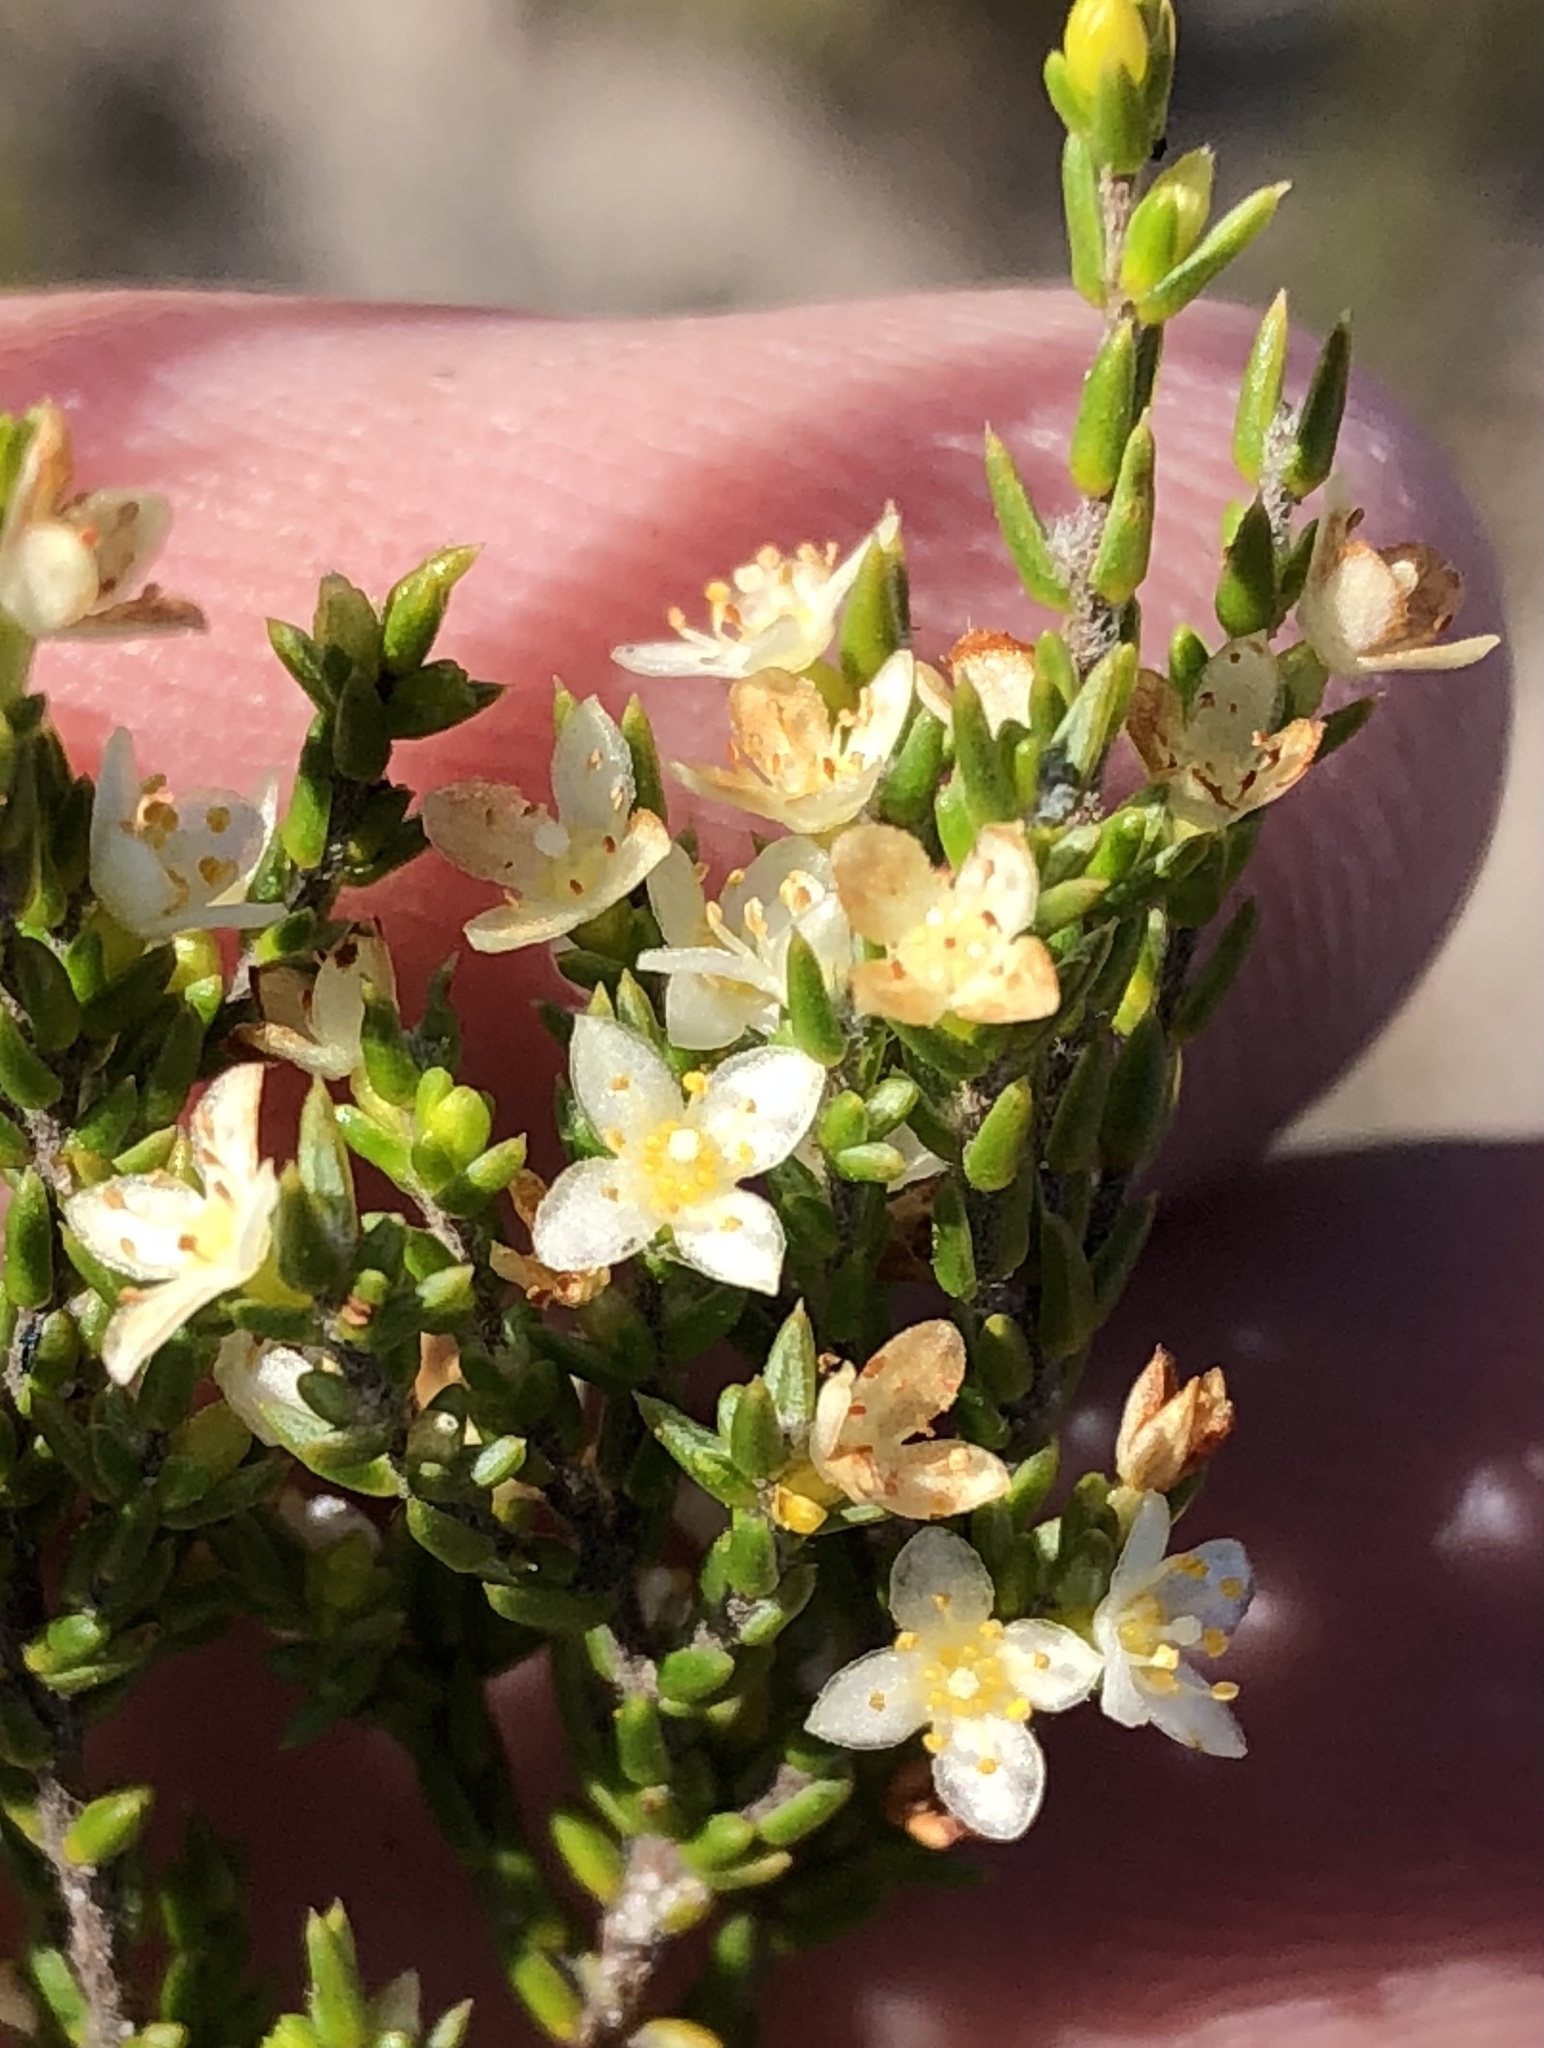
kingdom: Plantae
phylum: Tracheophyta
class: Magnoliopsida
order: Malvales
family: Thymelaeaceae
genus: Lachnaea
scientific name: Lachnaea axillaris
